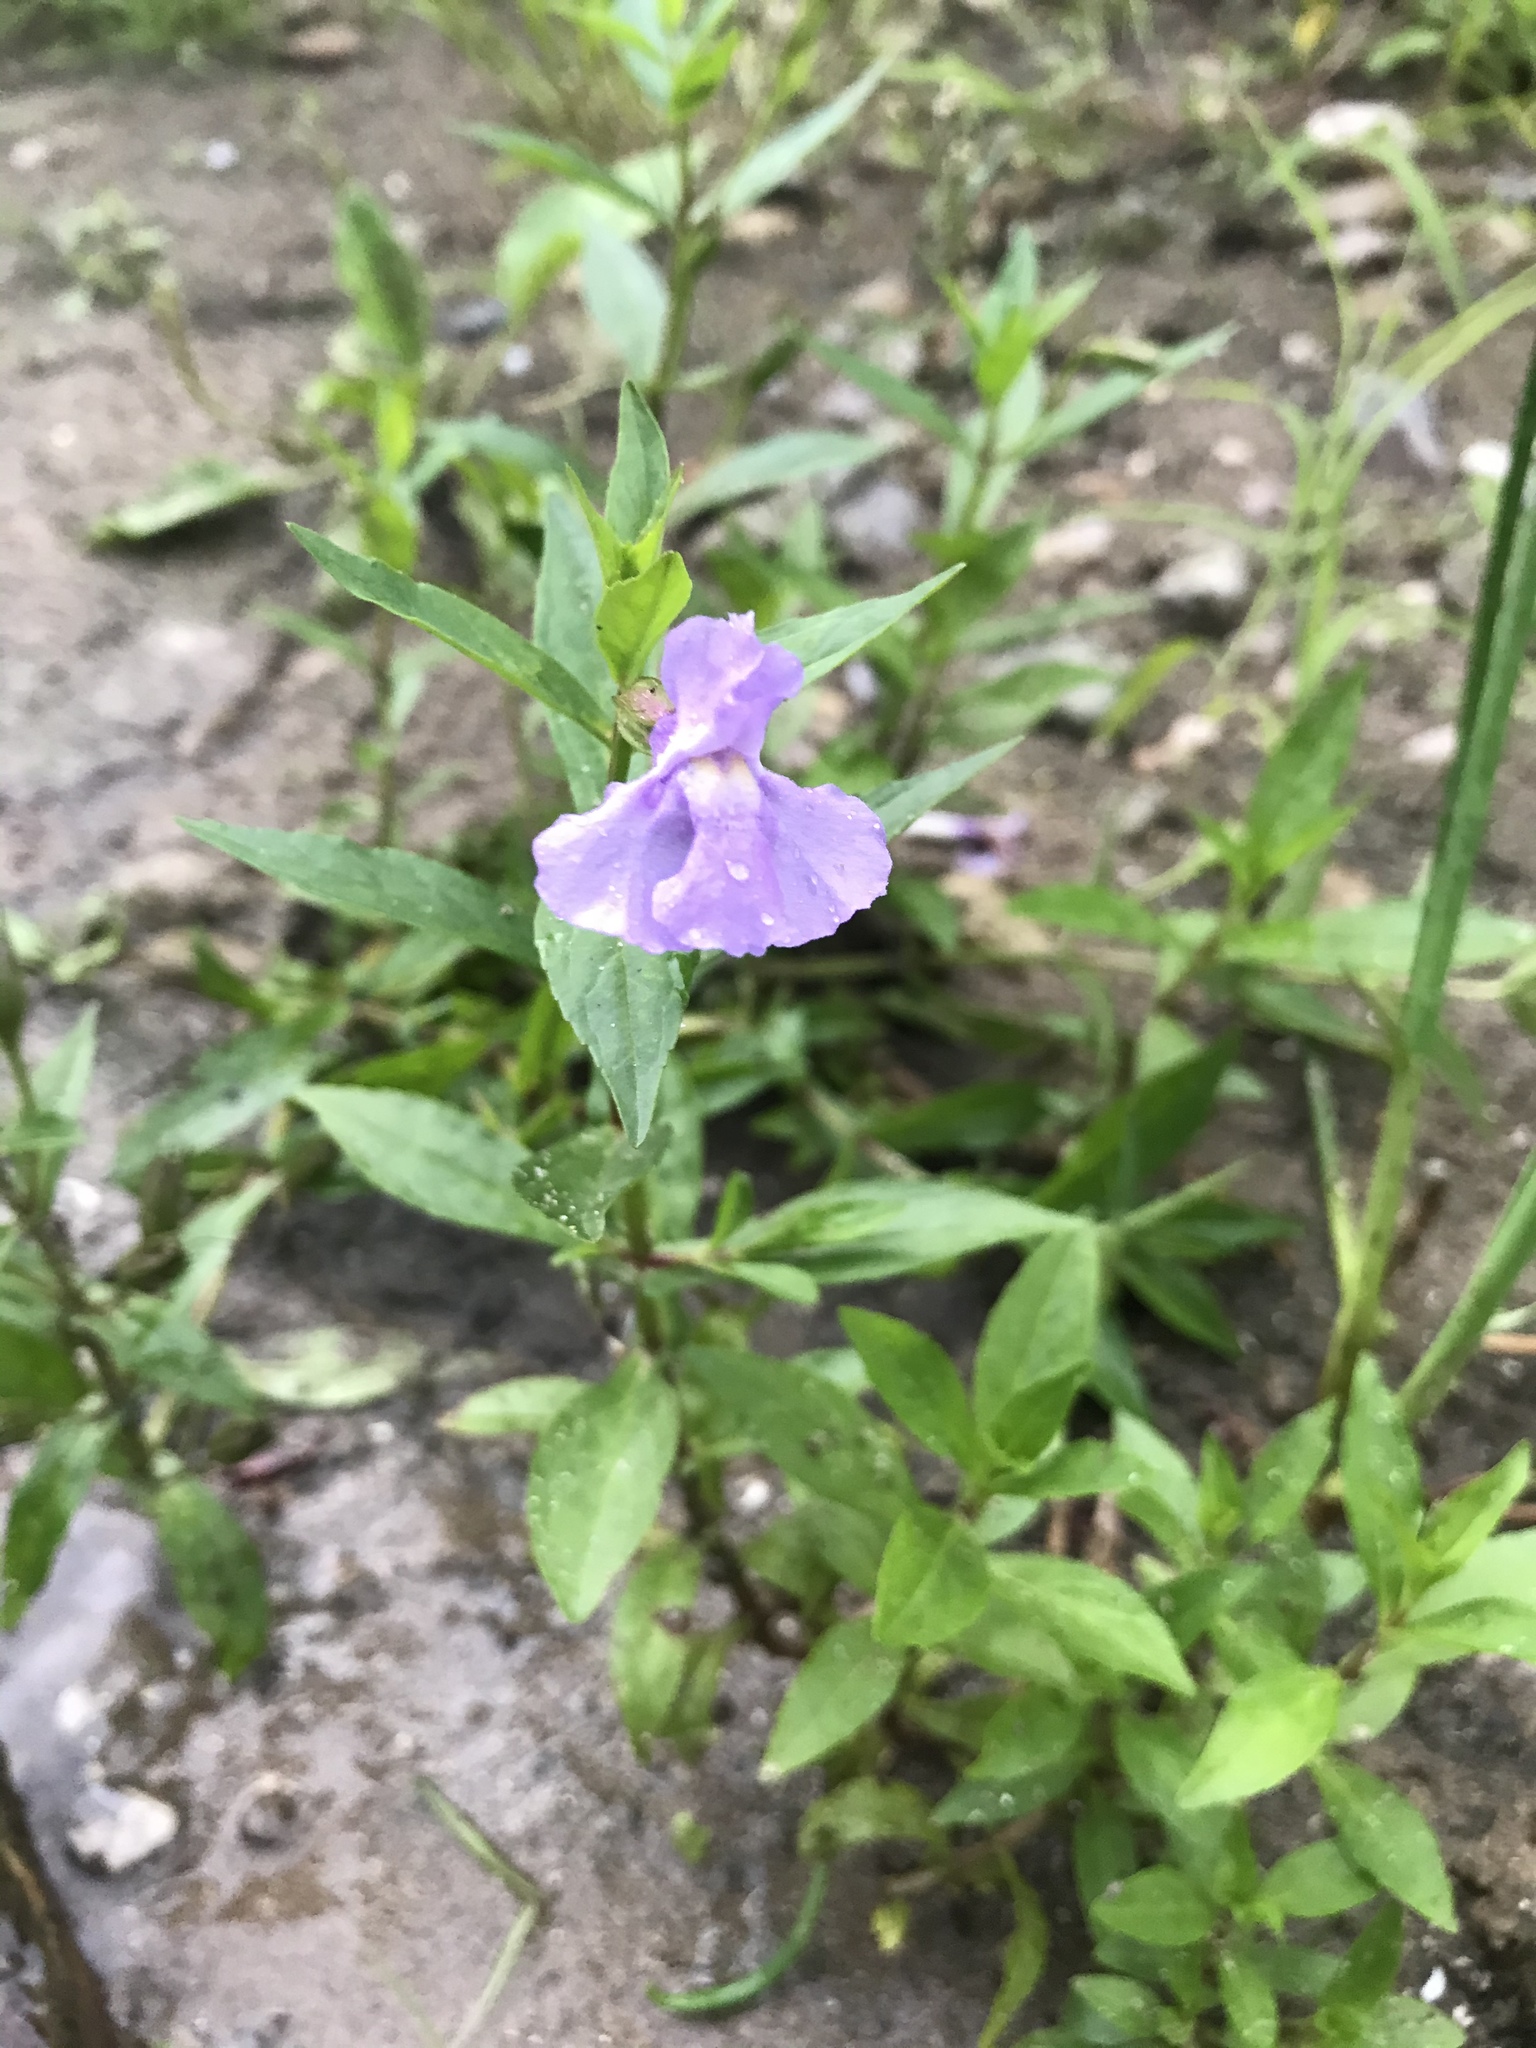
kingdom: Plantae
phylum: Tracheophyta
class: Magnoliopsida
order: Lamiales
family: Phrymaceae
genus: Mimulus
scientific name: Mimulus ringens
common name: Allegheny monkeyflower
